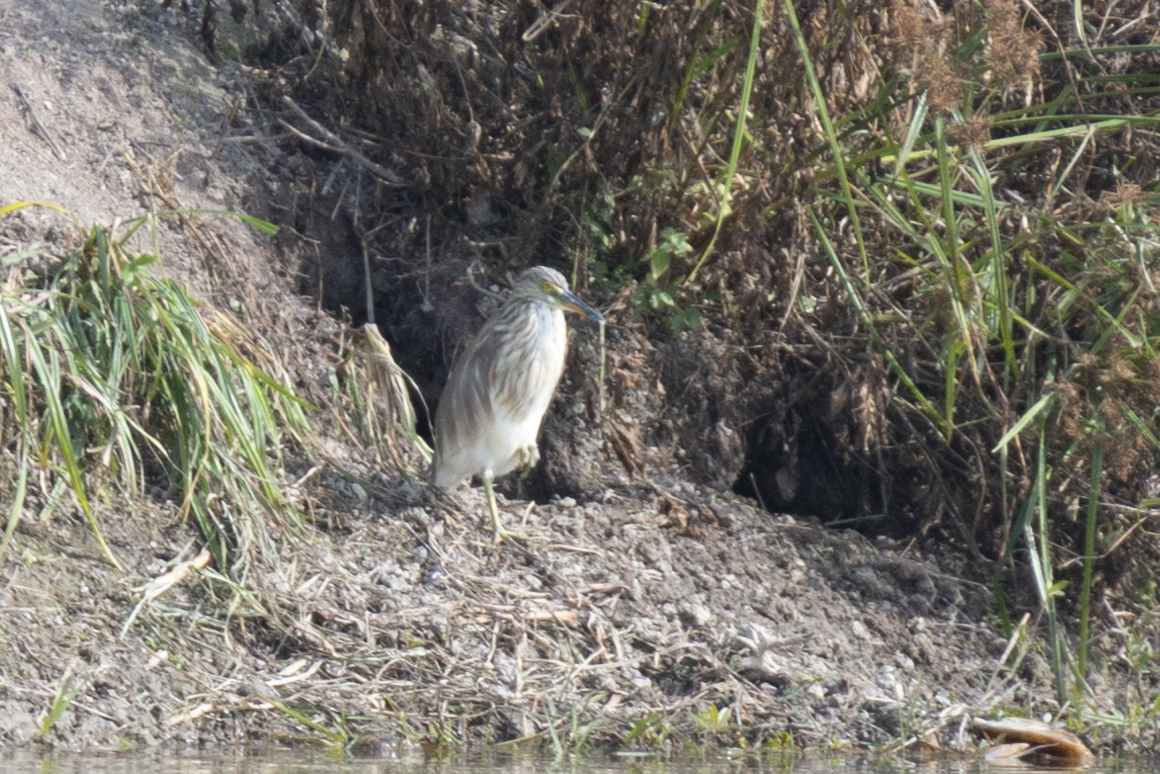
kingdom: Animalia
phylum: Chordata
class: Aves
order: Pelecaniformes
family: Ardeidae
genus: Ardeola
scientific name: Ardeola bacchus
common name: Chinese pond heron
